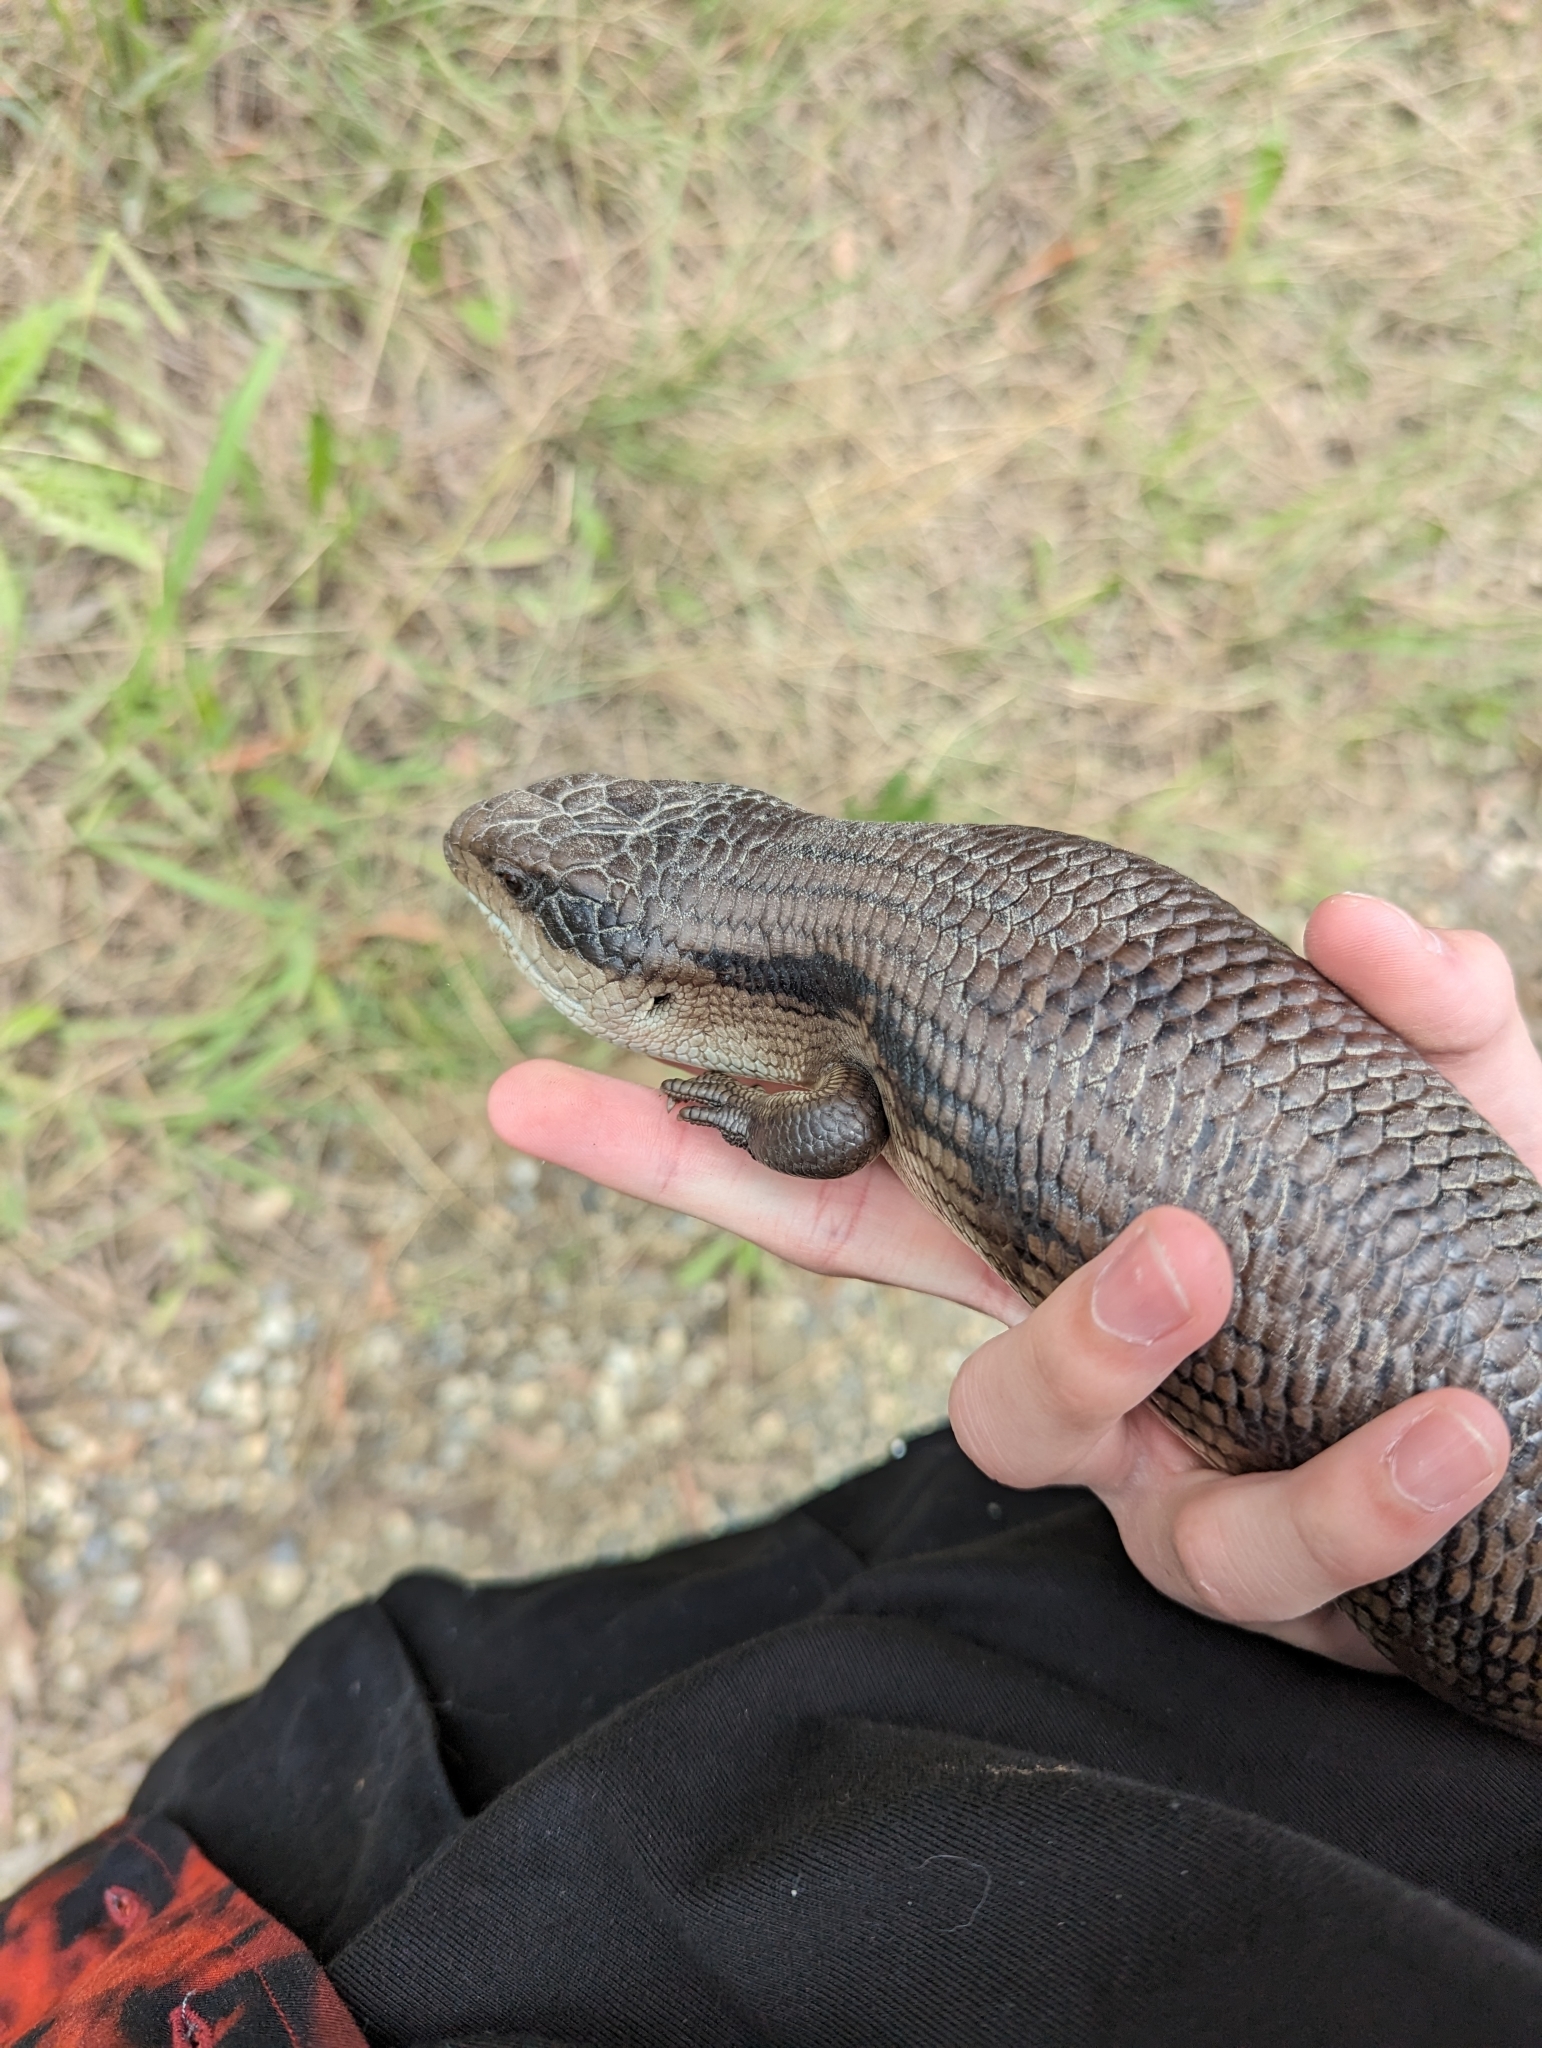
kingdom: Animalia
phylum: Chordata
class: Squamata
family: Scincidae
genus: Tiliqua
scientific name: Tiliqua scincoides
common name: Common bluetongue
